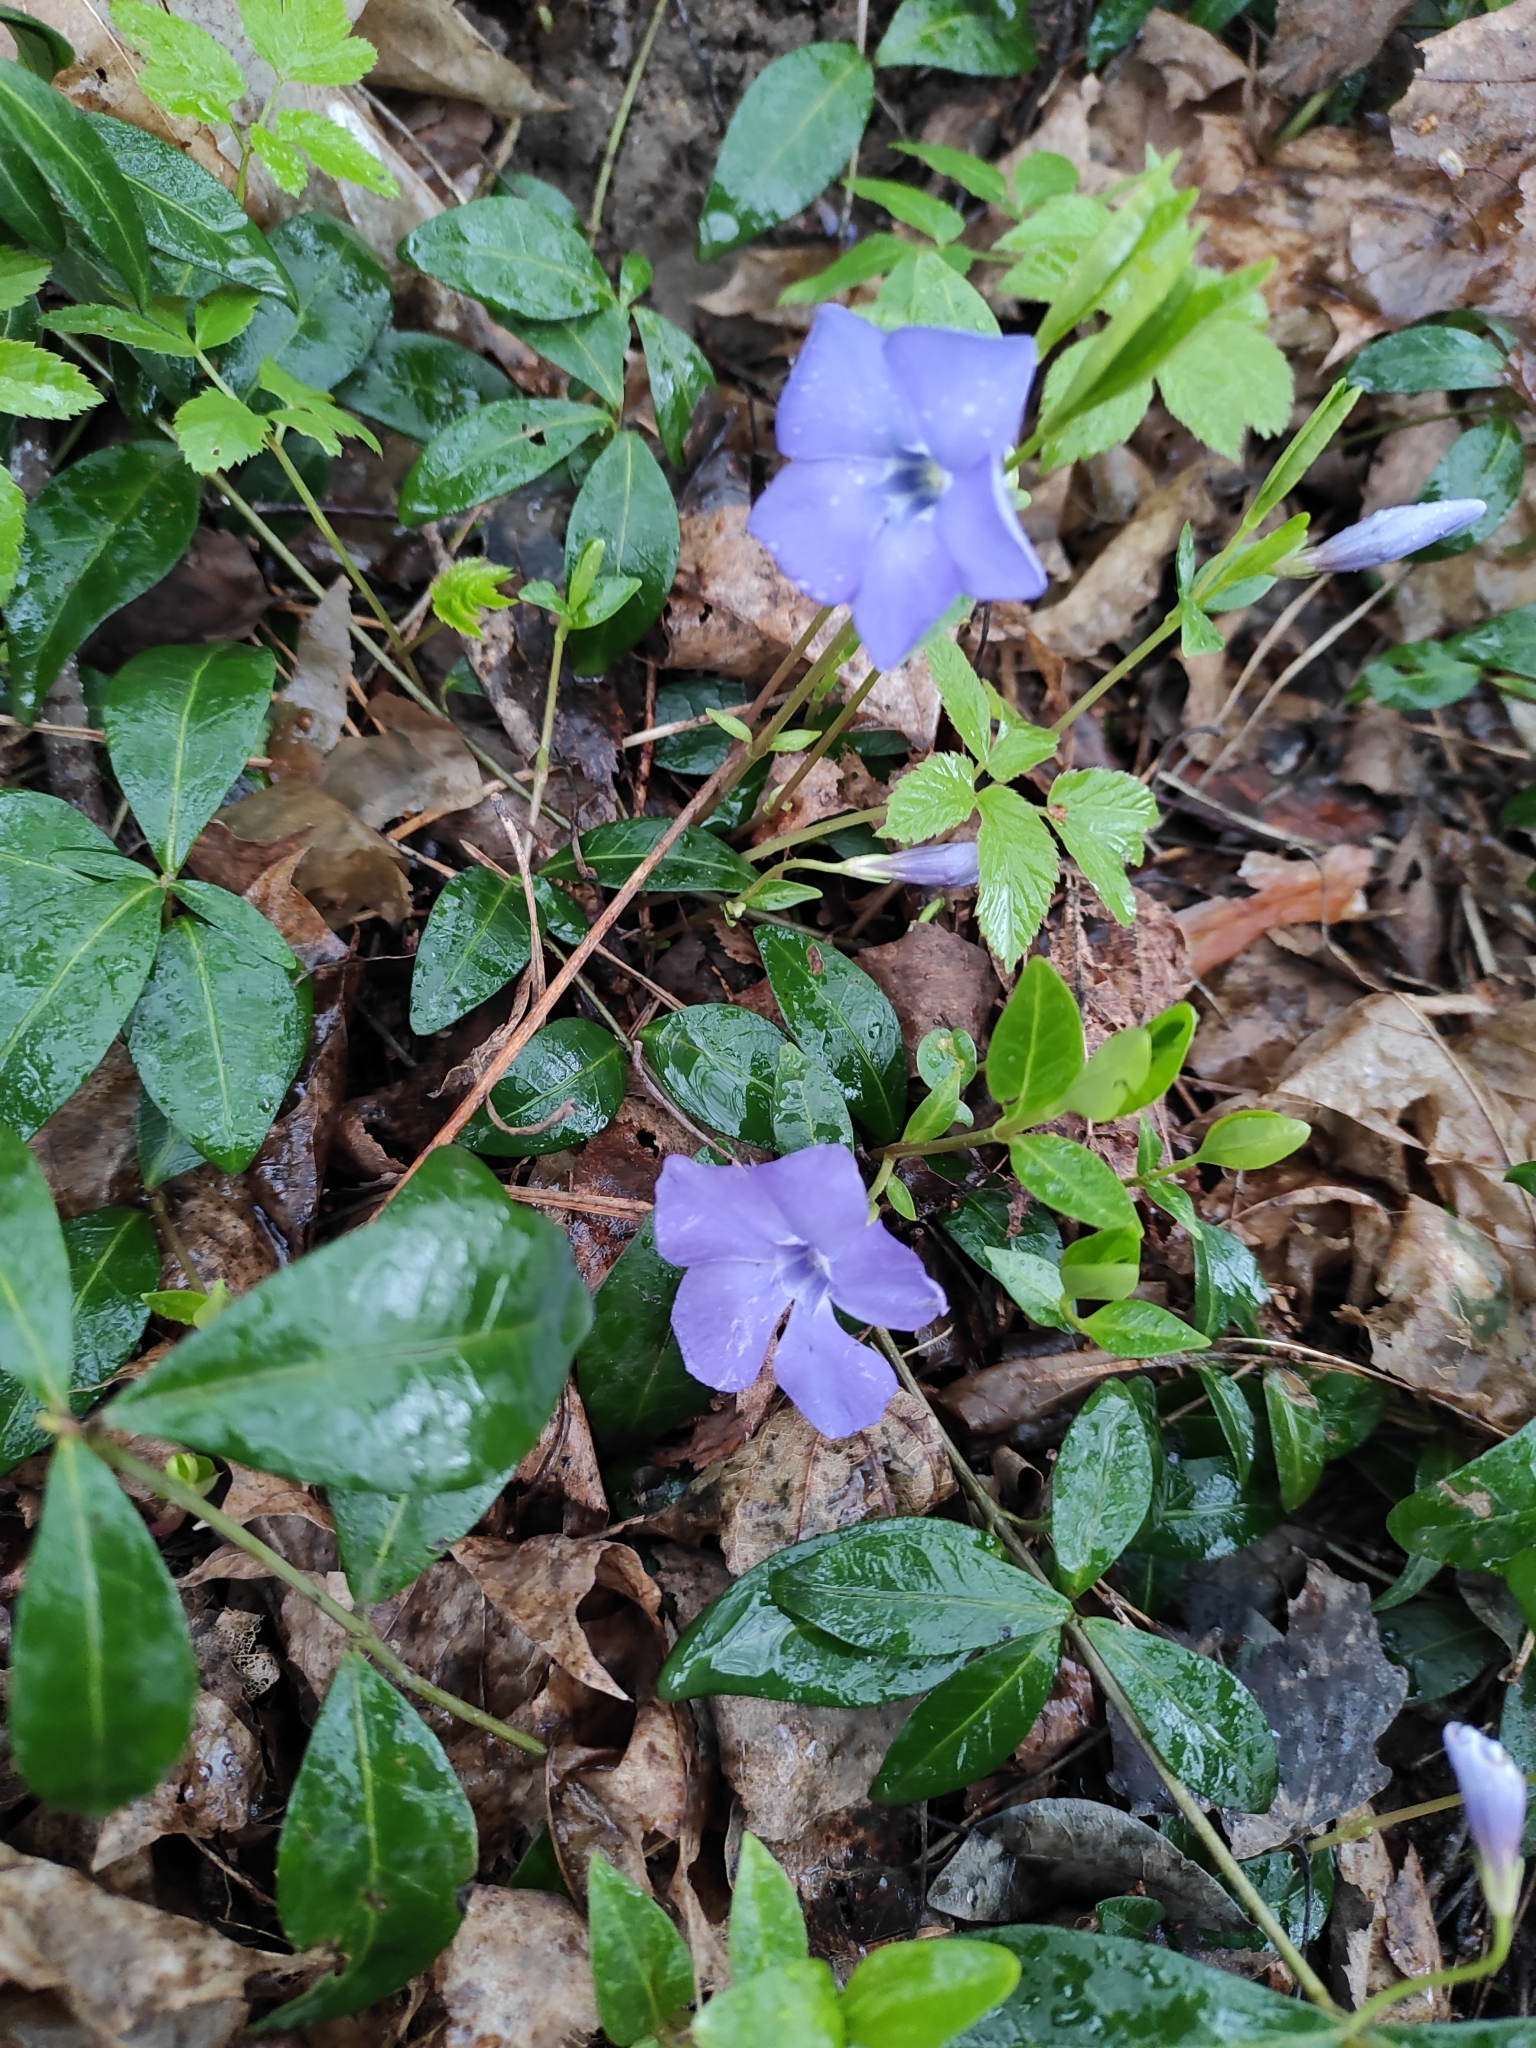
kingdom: Plantae
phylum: Tracheophyta
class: Magnoliopsida
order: Gentianales
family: Apocynaceae
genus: Vinca
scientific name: Vinca minor
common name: Lesser periwinkle
